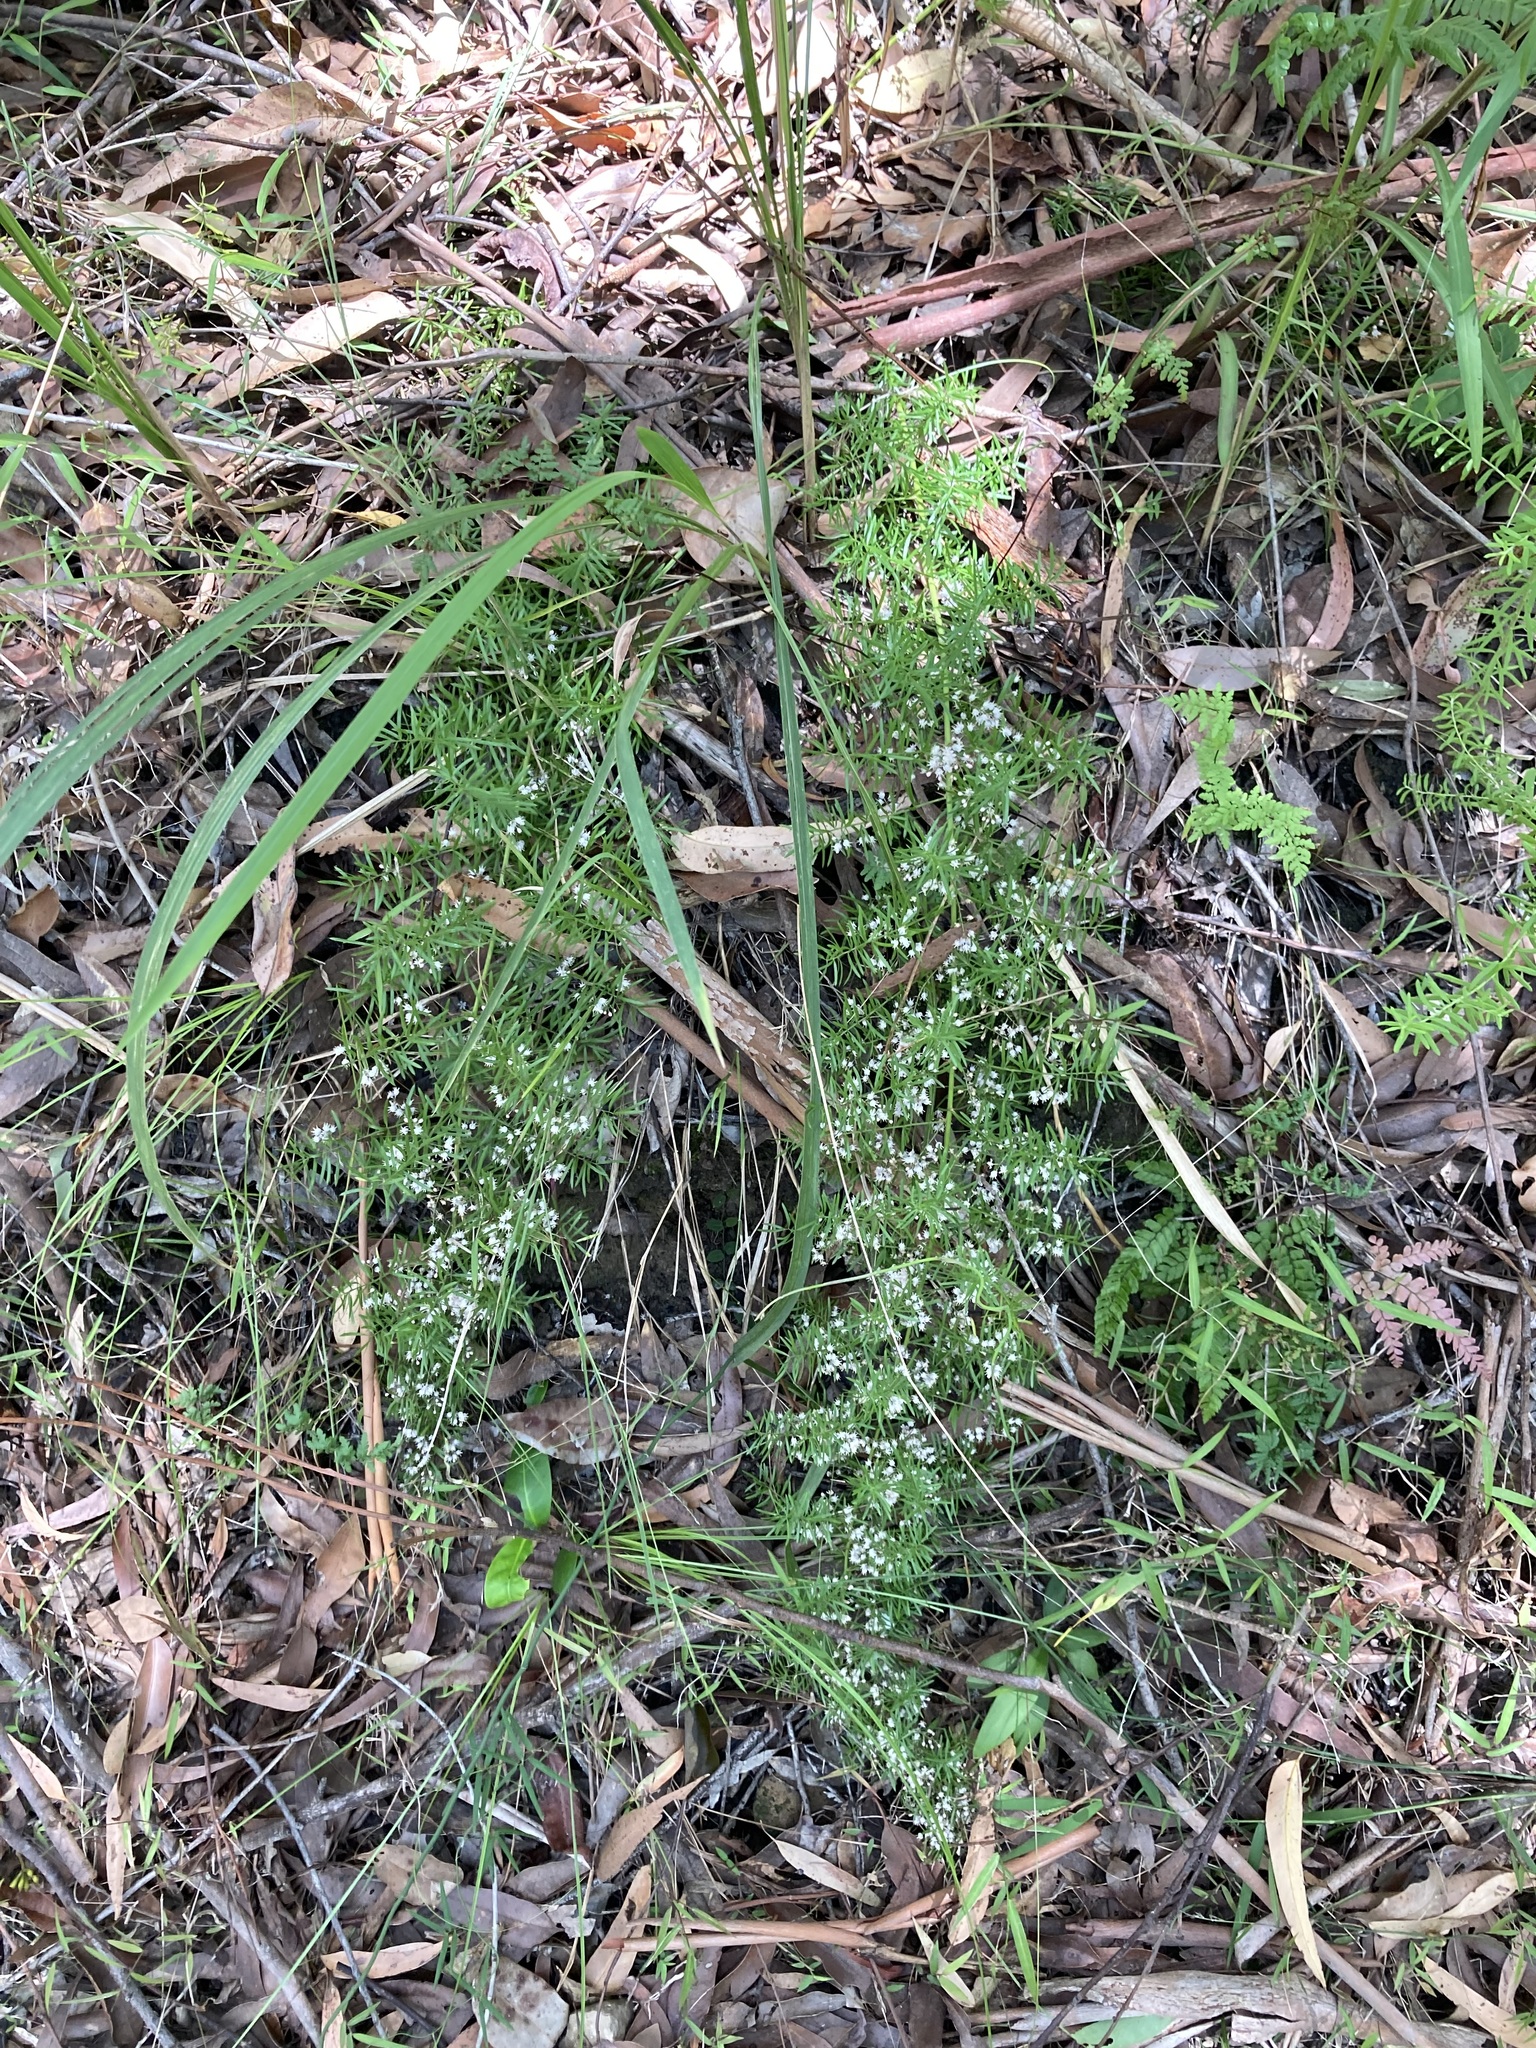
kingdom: Plantae
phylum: Tracheophyta
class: Liliopsida
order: Asparagales
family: Asparagaceae
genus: Asparagus
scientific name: Asparagus aethiopicus
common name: Sprenger's asparagus fern
